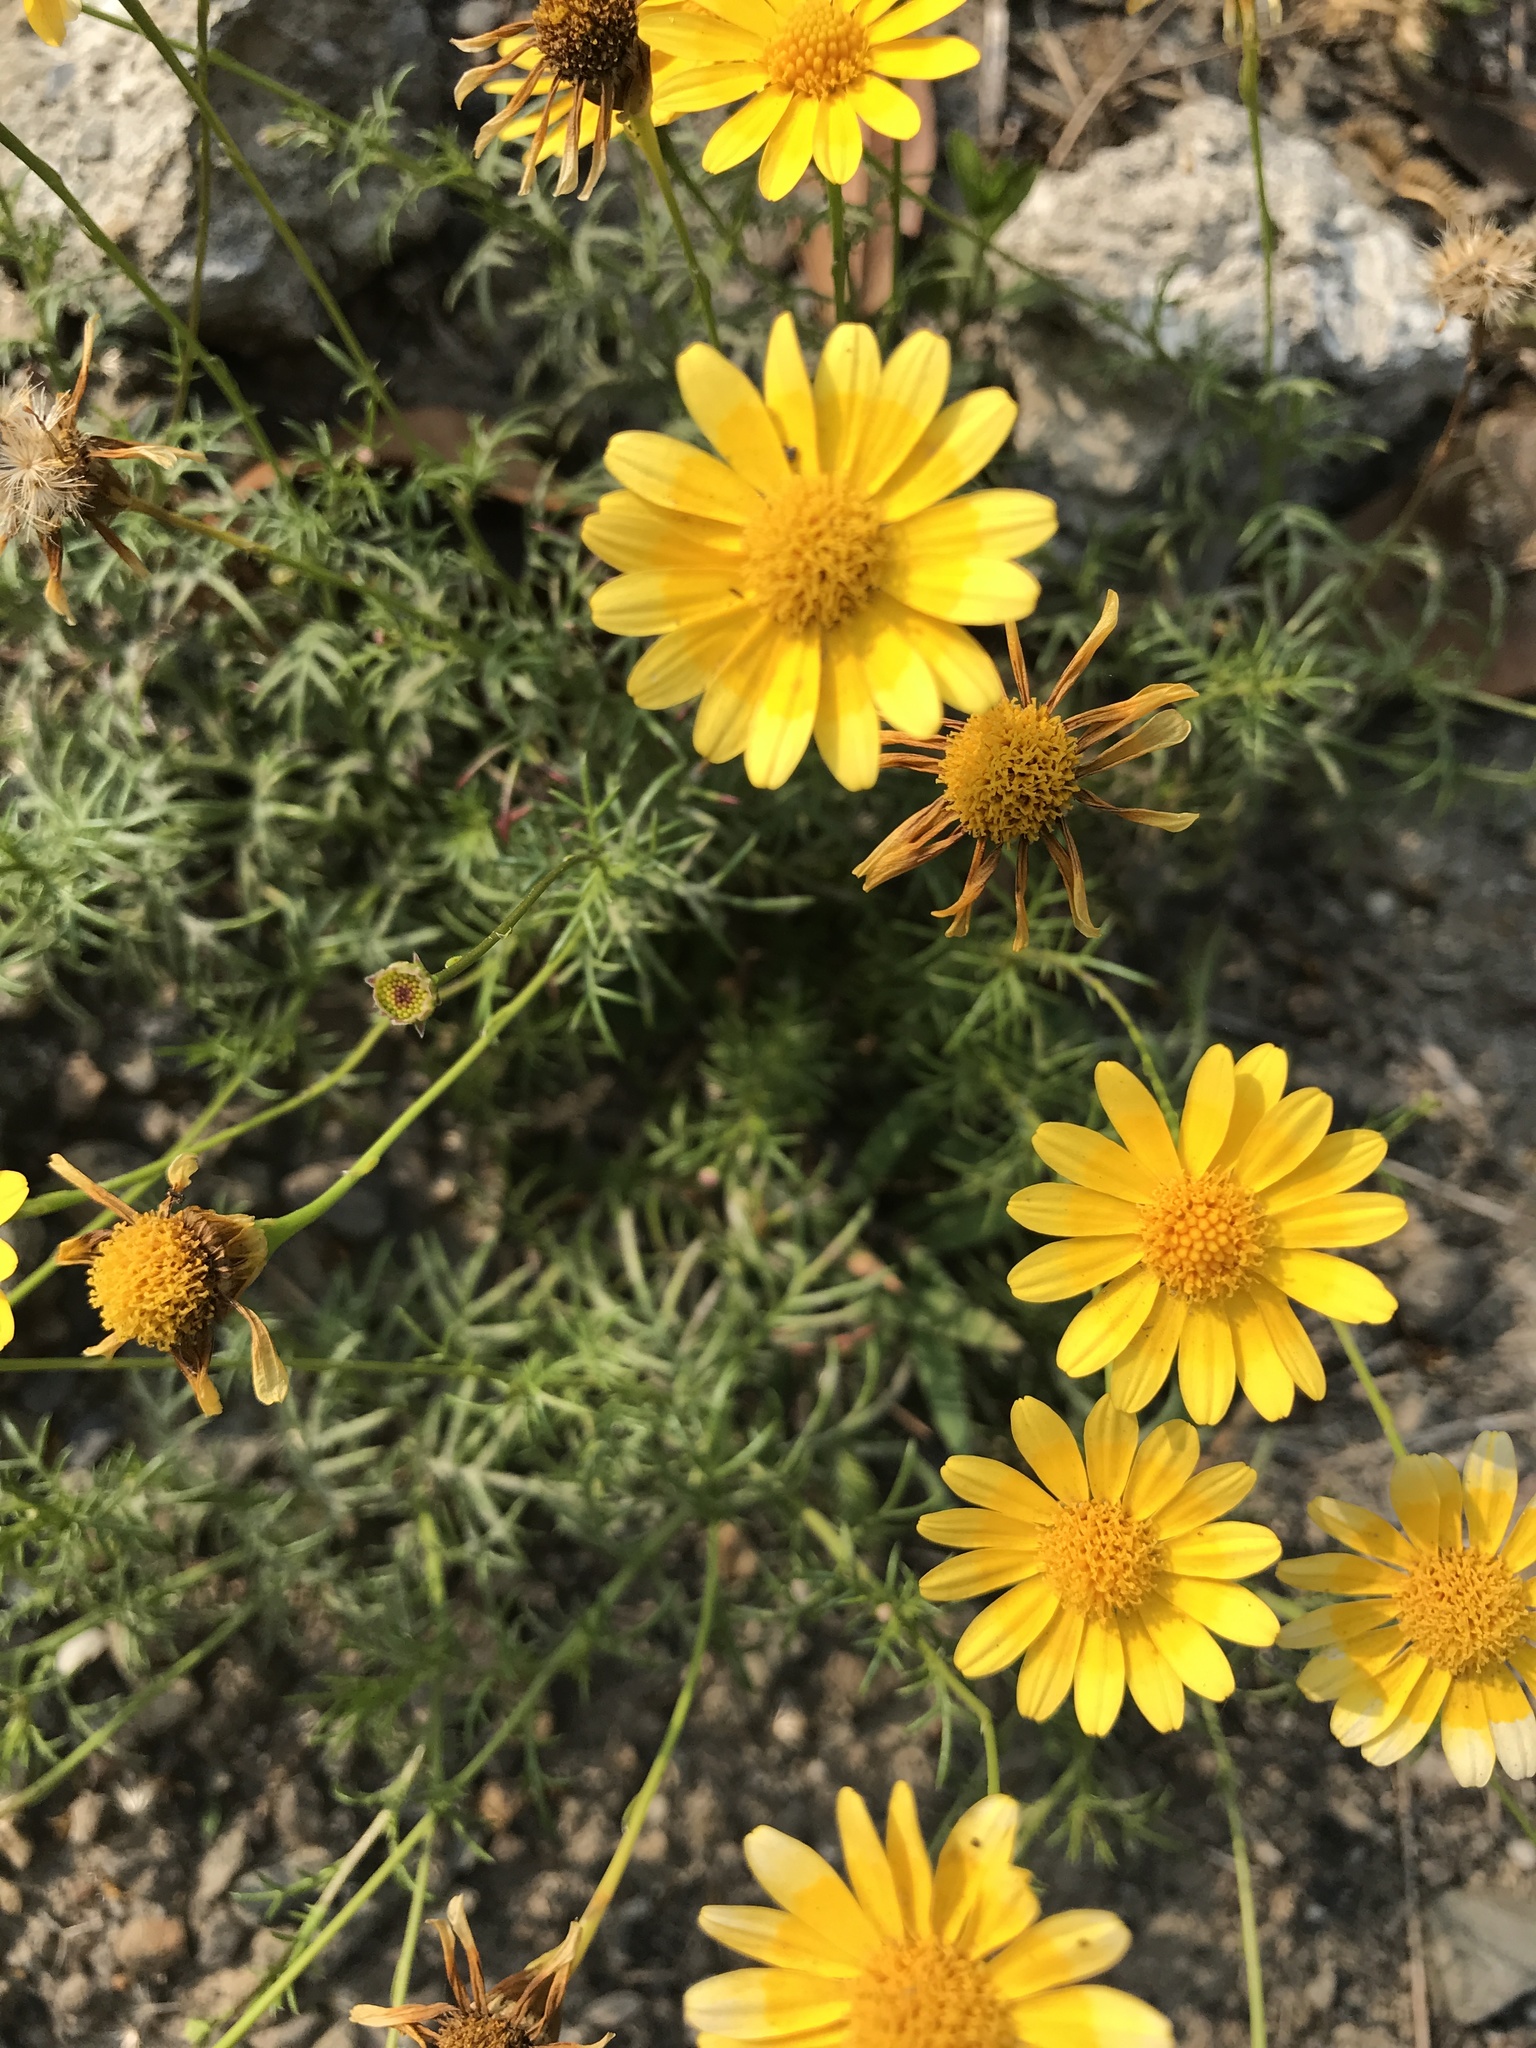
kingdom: Plantae
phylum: Tracheophyta
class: Magnoliopsida
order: Asterales
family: Asteraceae
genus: Thymophylla
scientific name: Thymophylla tenuiloba
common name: Dahlberg's daisy
